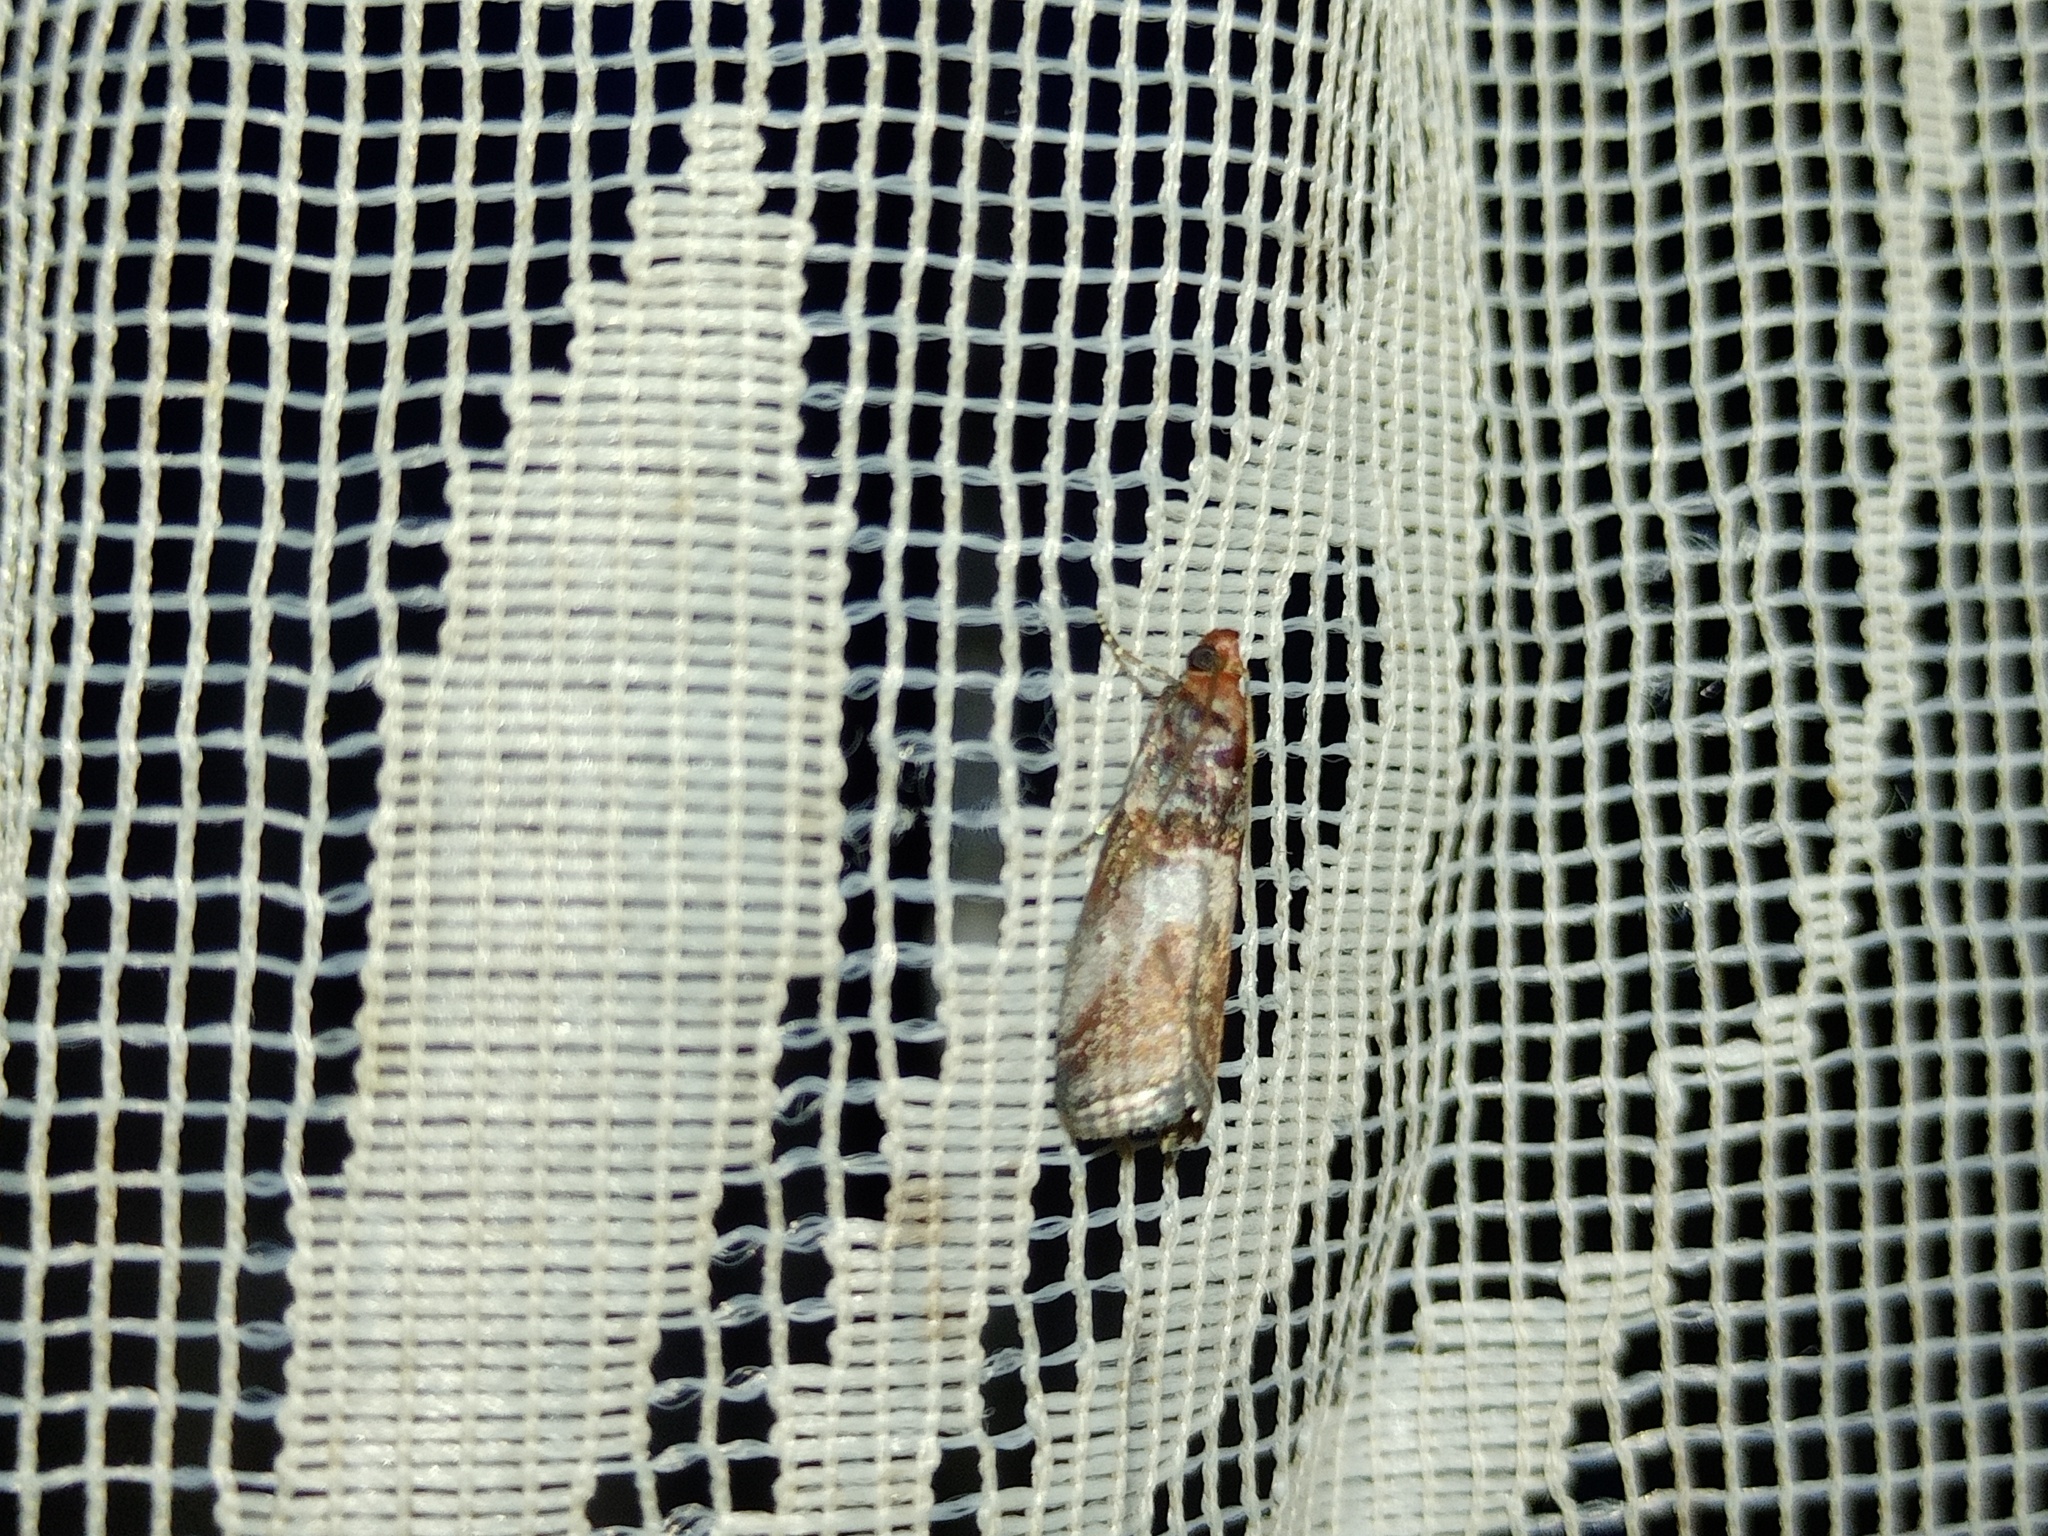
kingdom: Animalia
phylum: Arthropoda
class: Insecta
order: Lepidoptera
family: Pyralidae
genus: Acrobasis
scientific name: Acrobasis advenella
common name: Grey knot-horn
